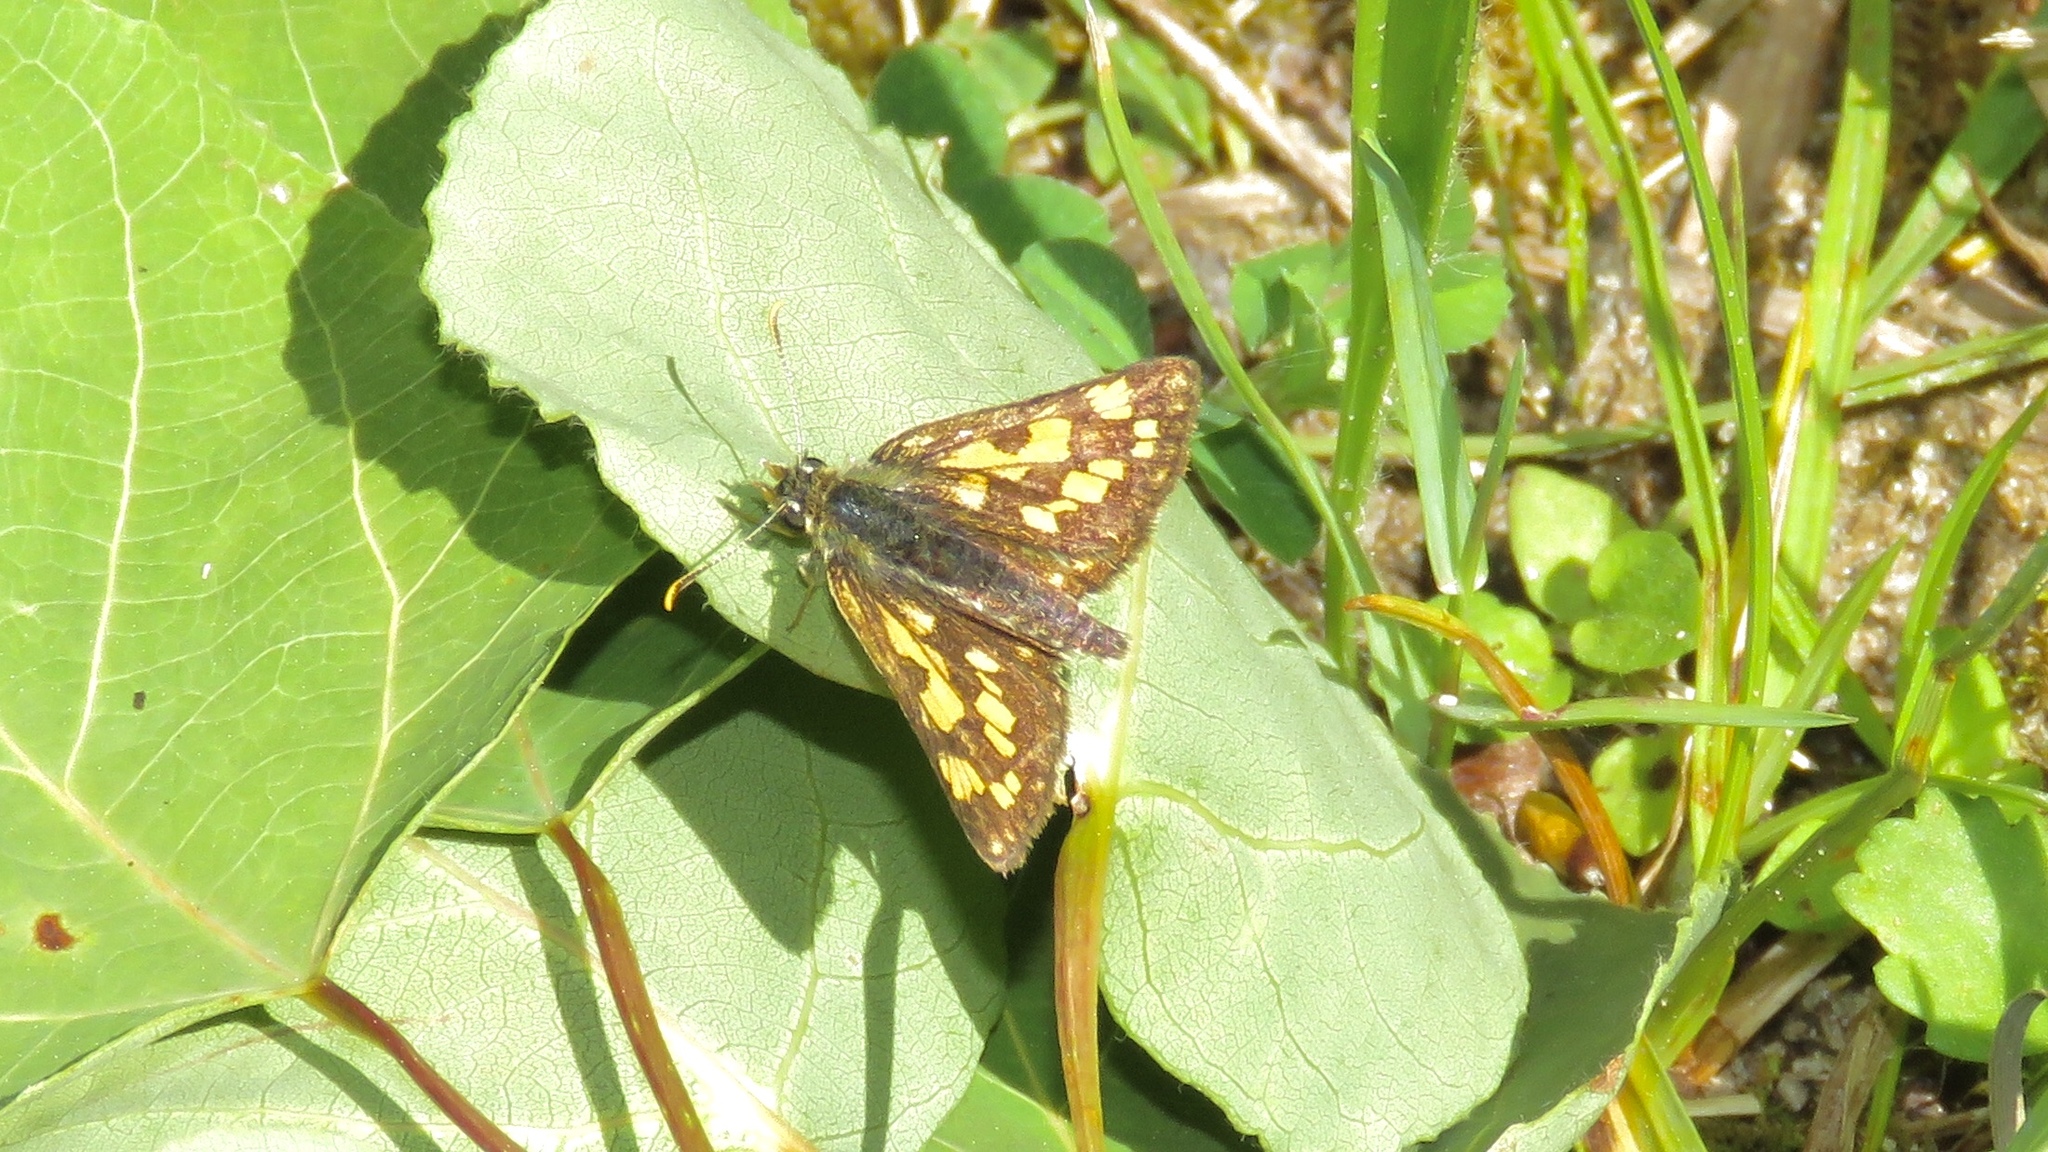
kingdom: Animalia
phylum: Arthropoda
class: Insecta
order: Lepidoptera
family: Hesperiidae
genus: Carterocephalus
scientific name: Carterocephalus mandan
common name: Arctic skipperling
